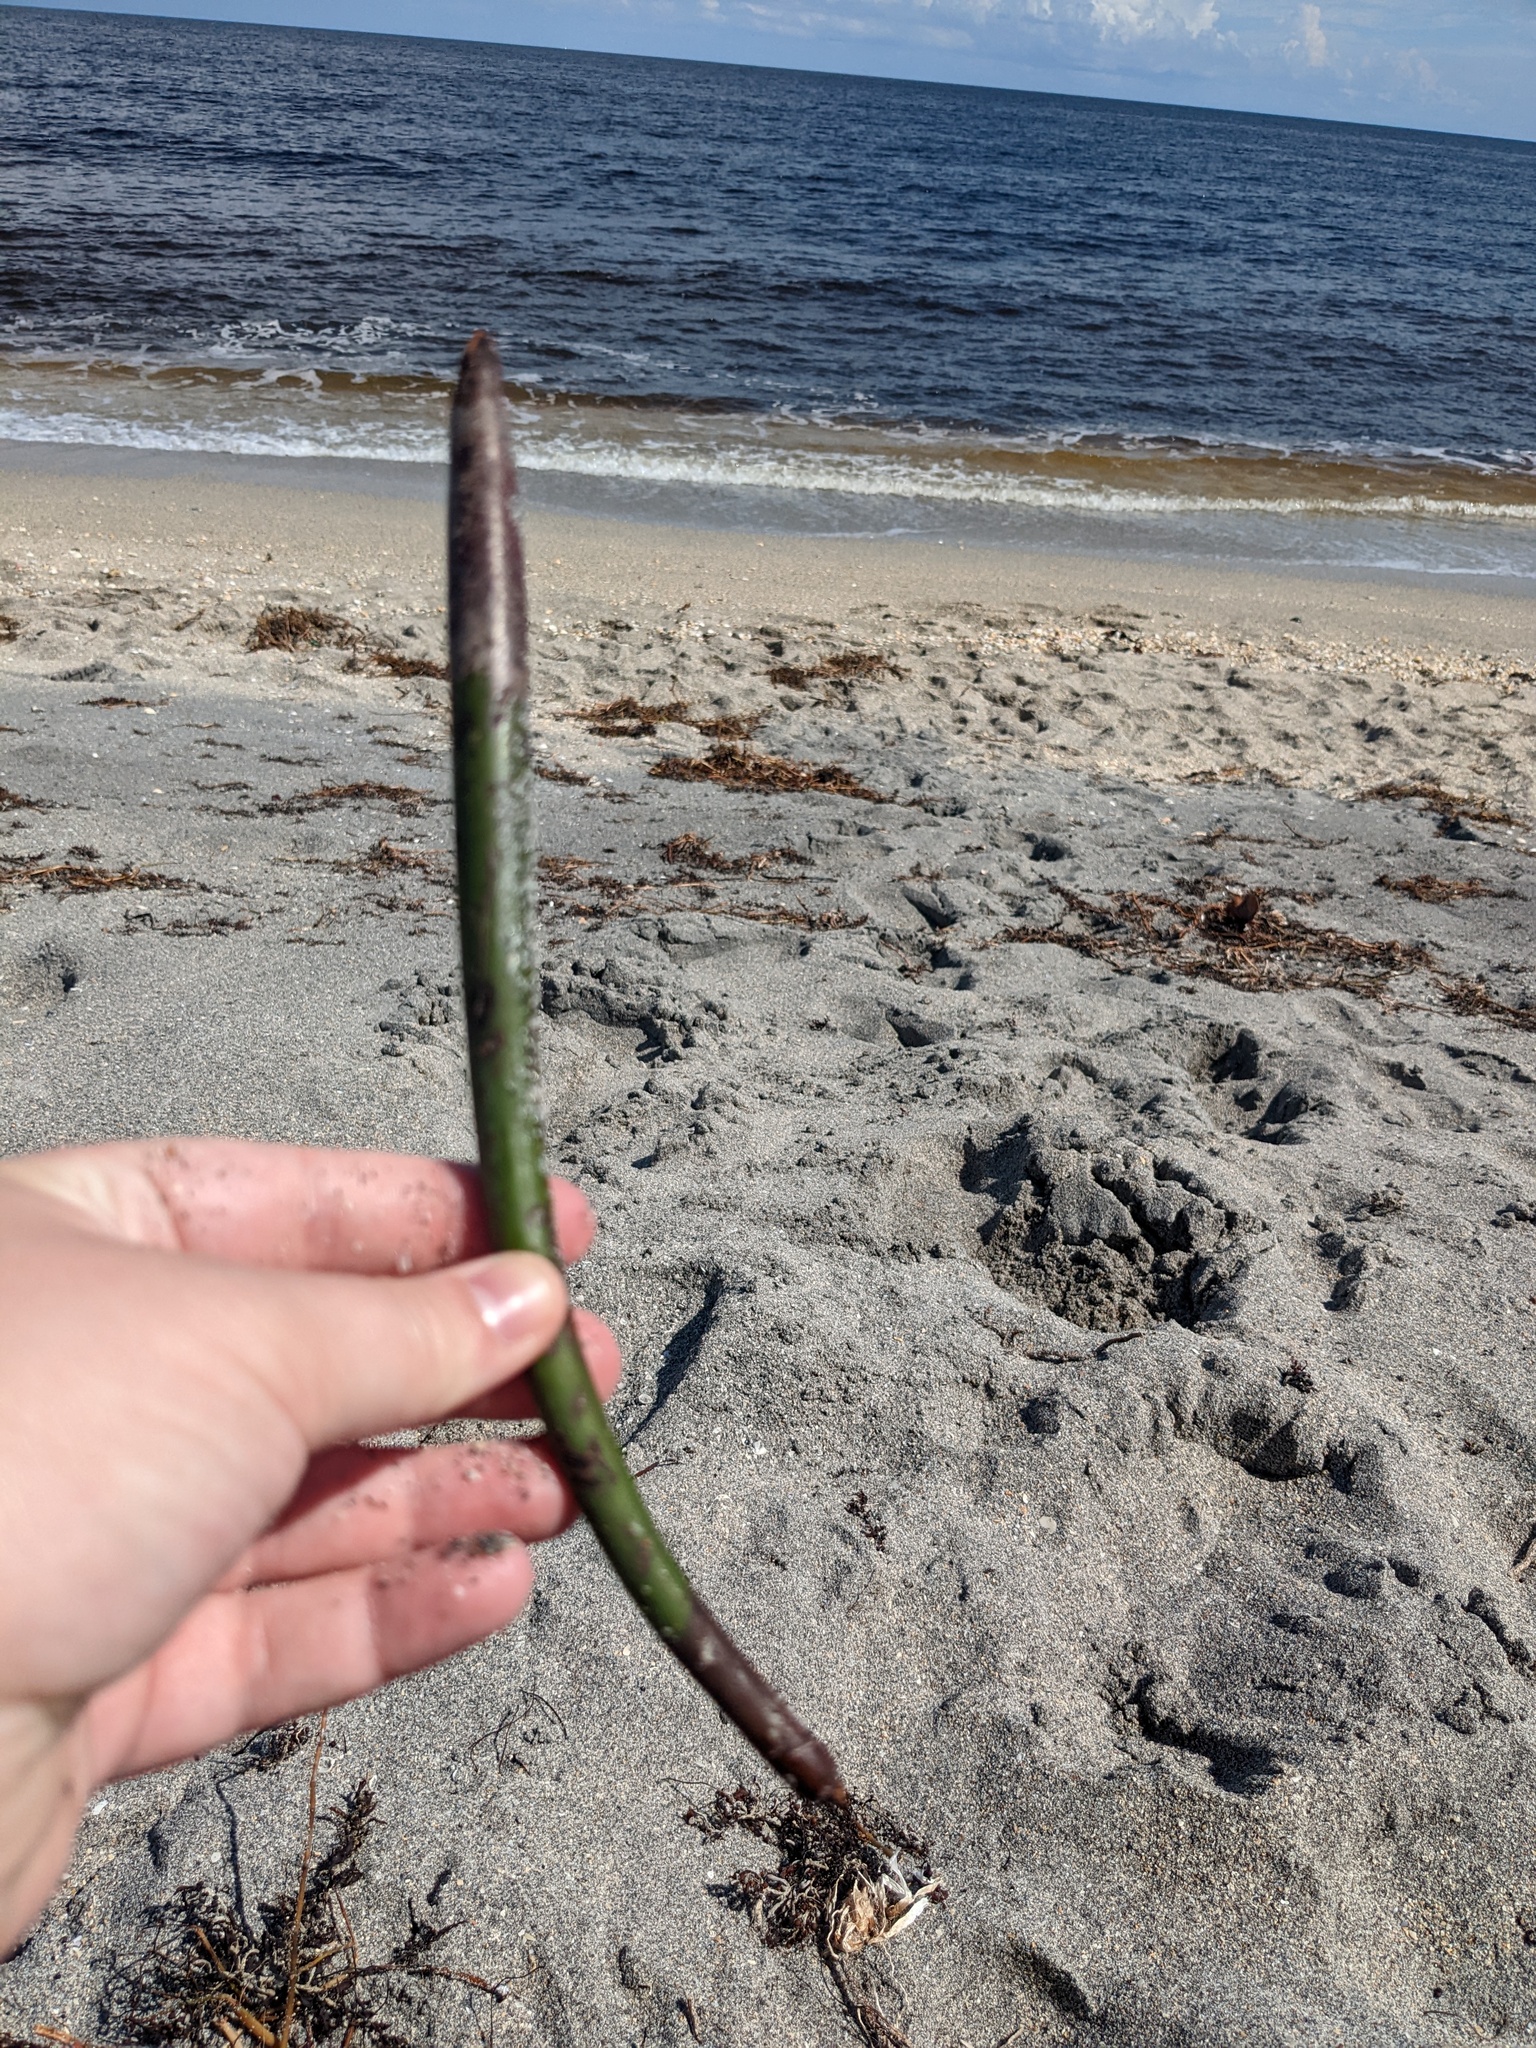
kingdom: Plantae
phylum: Tracheophyta
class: Magnoliopsida
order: Malpighiales
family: Rhizophoraceae
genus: Rhizophora
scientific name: Rhizophora mangle
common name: Red mangrove
